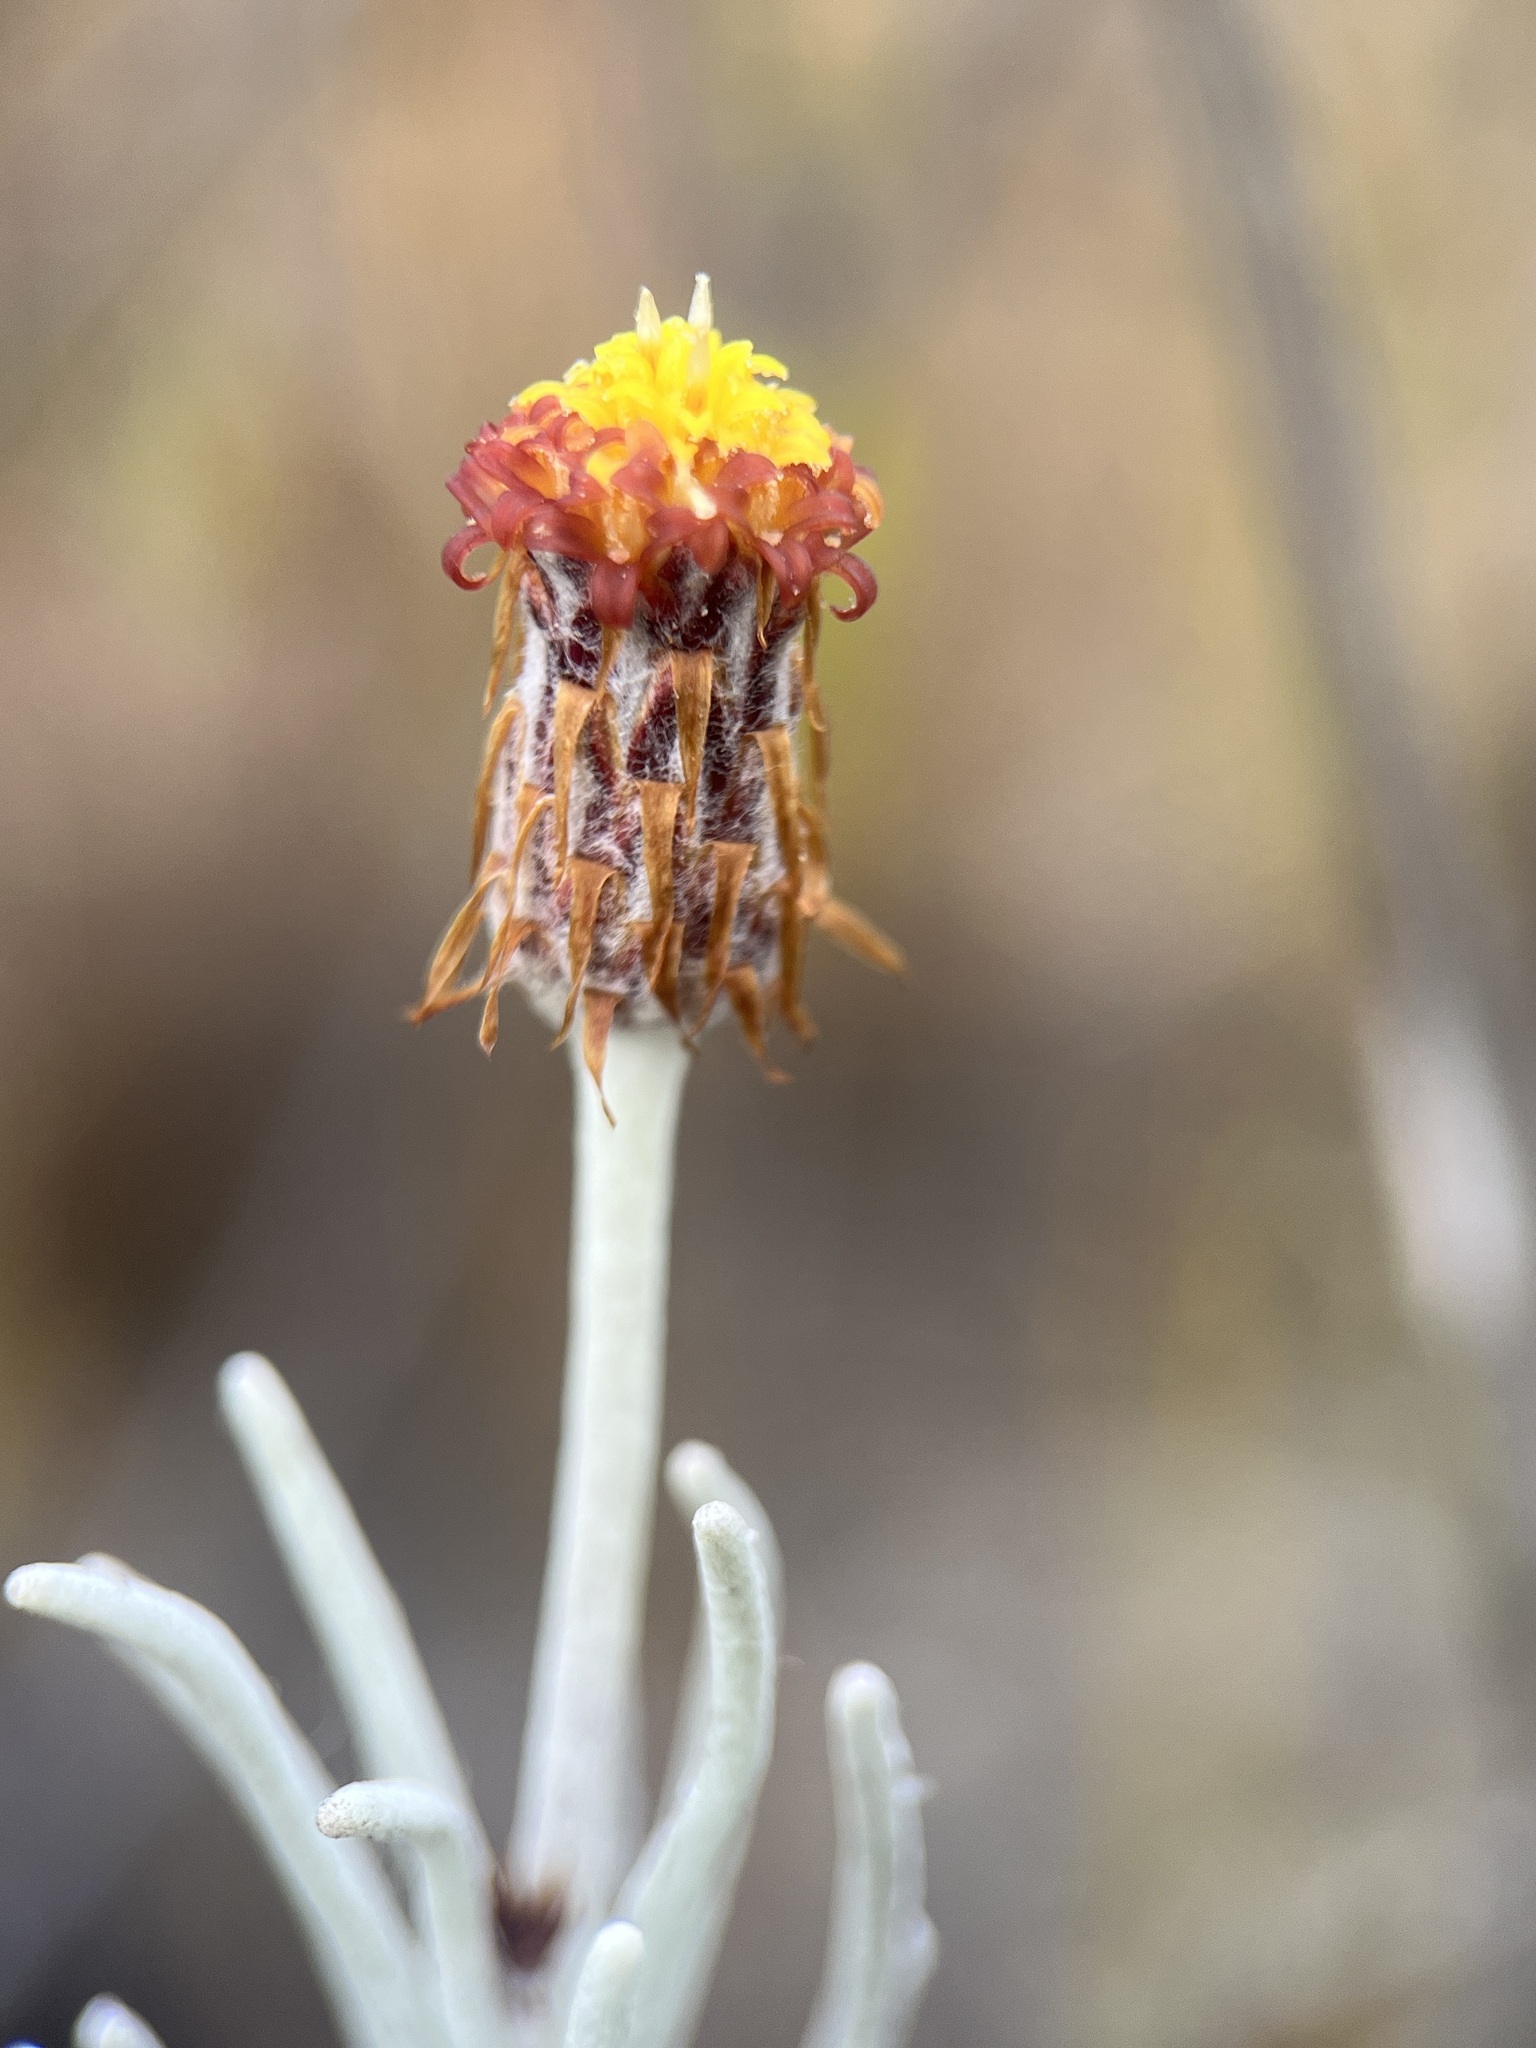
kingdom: Plantae
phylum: Tracheophyta
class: Magnoliopsida
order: Asterales
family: Asteraceae
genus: Syncarpha
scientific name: Syncarpha gnaphaloides
